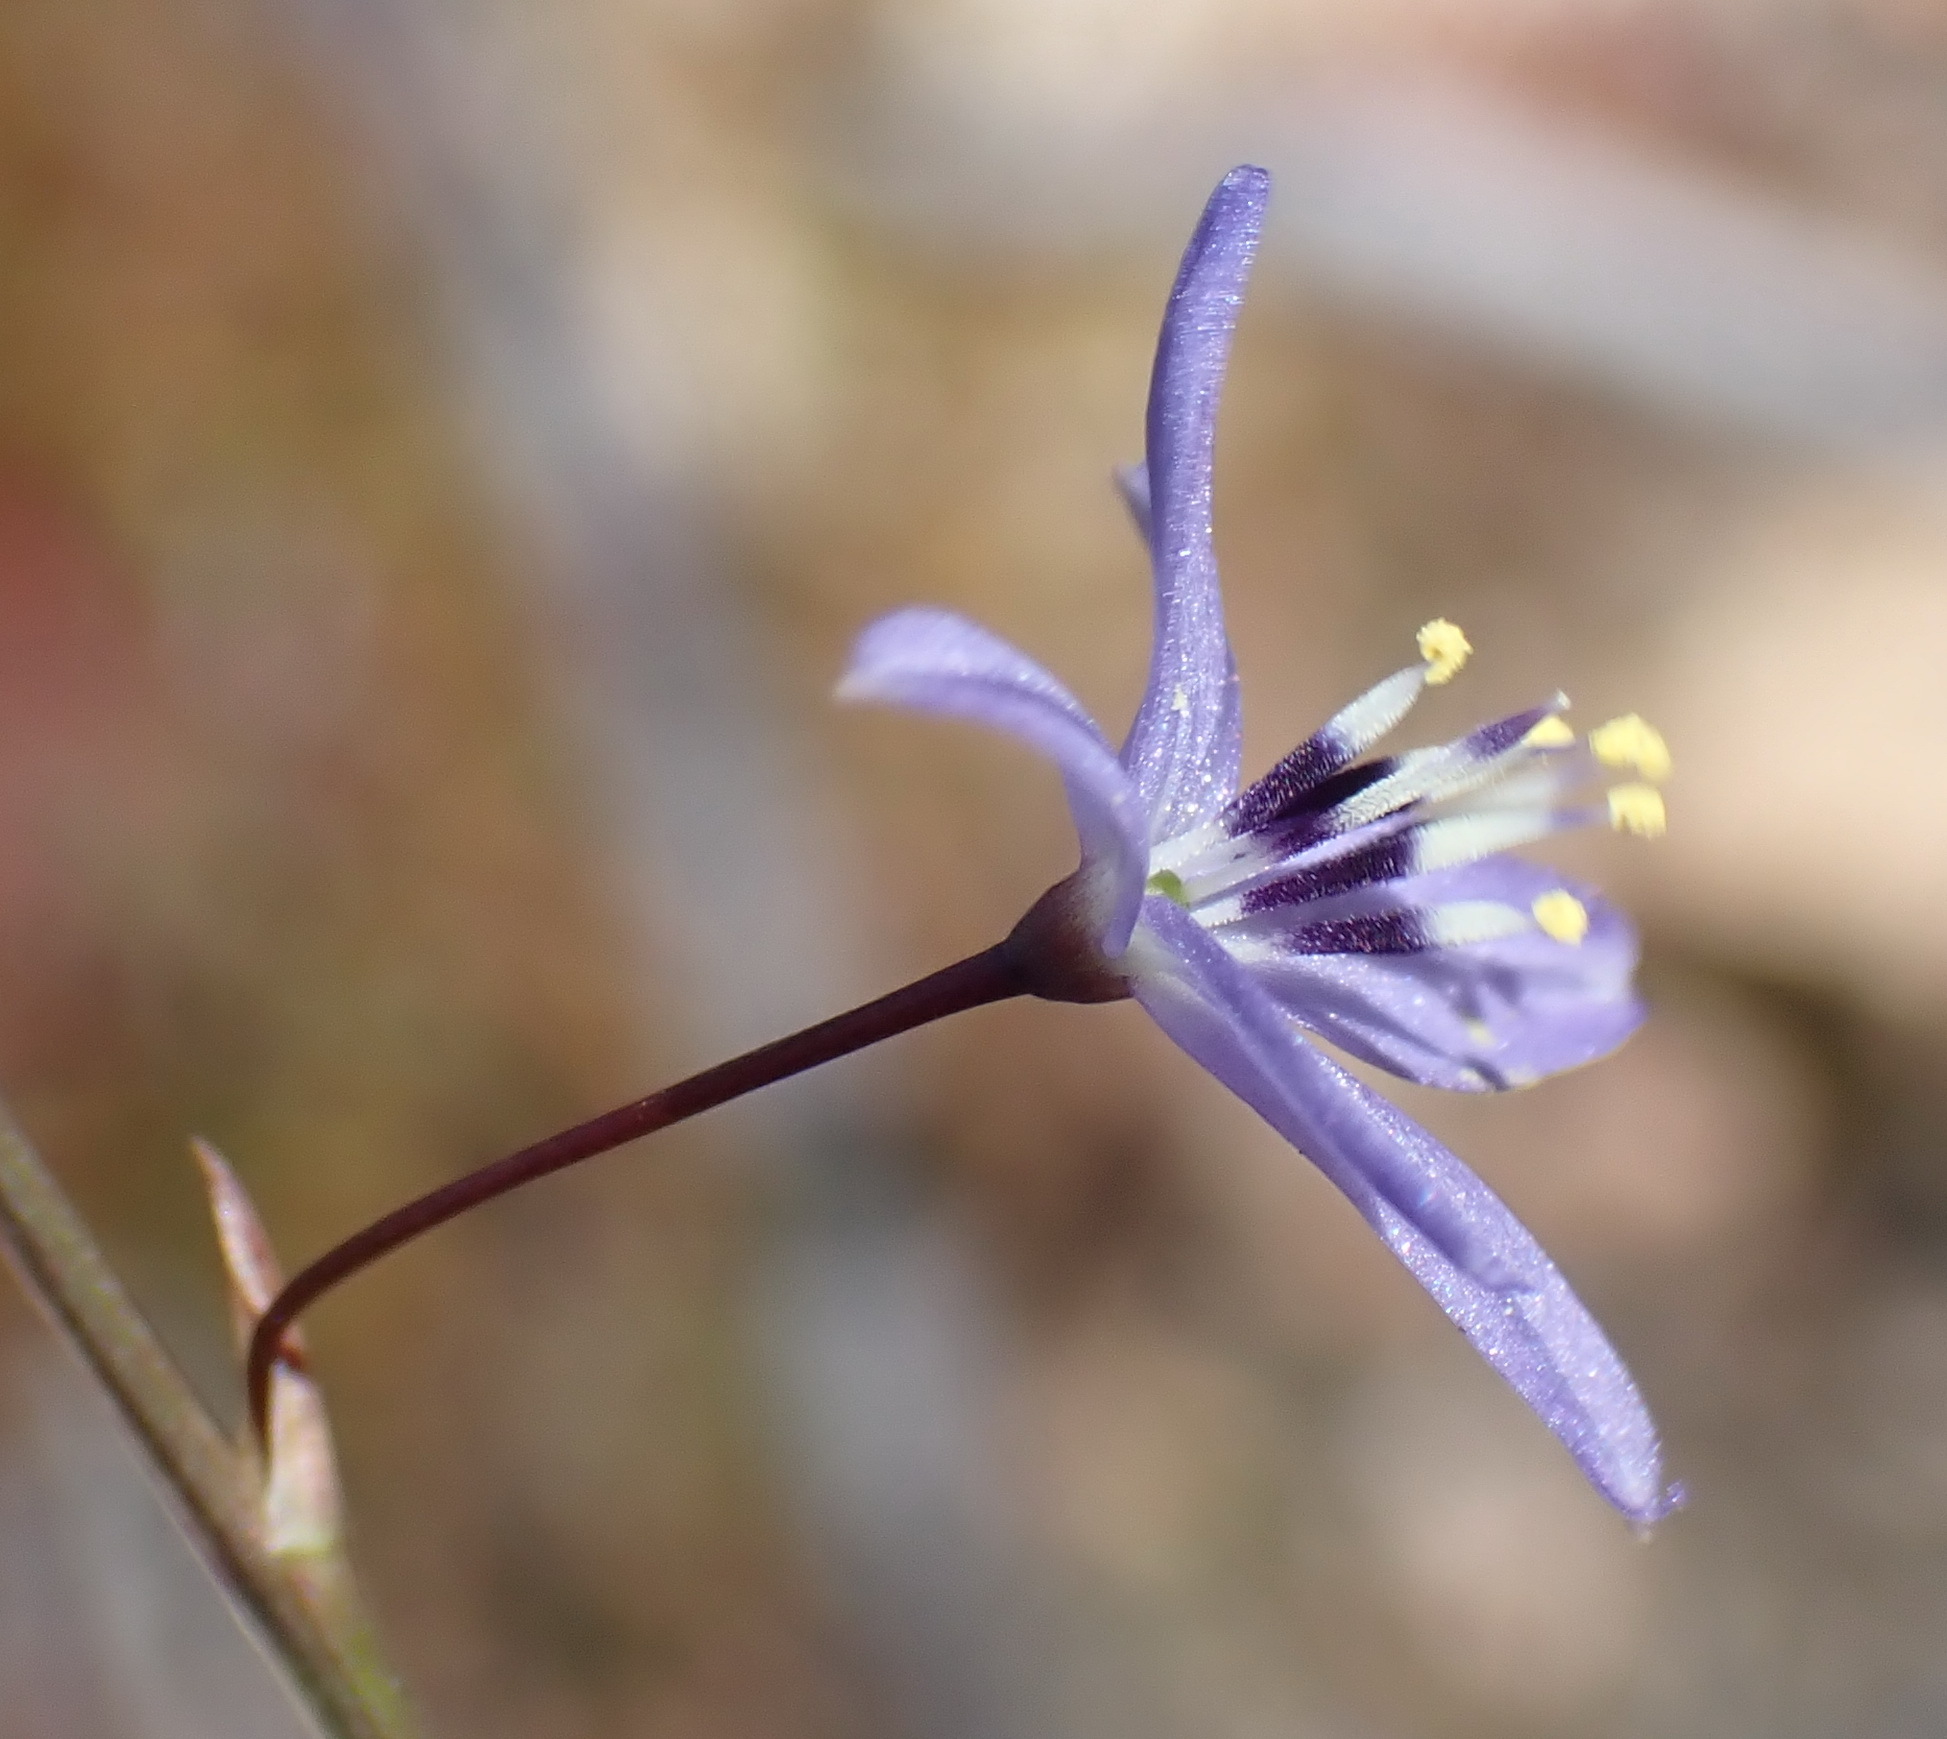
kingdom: Plantae
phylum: Tracheophyta
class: Liliopsida
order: Asparagales
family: Asphodelaceae
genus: Caesia
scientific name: Caesia contorta
